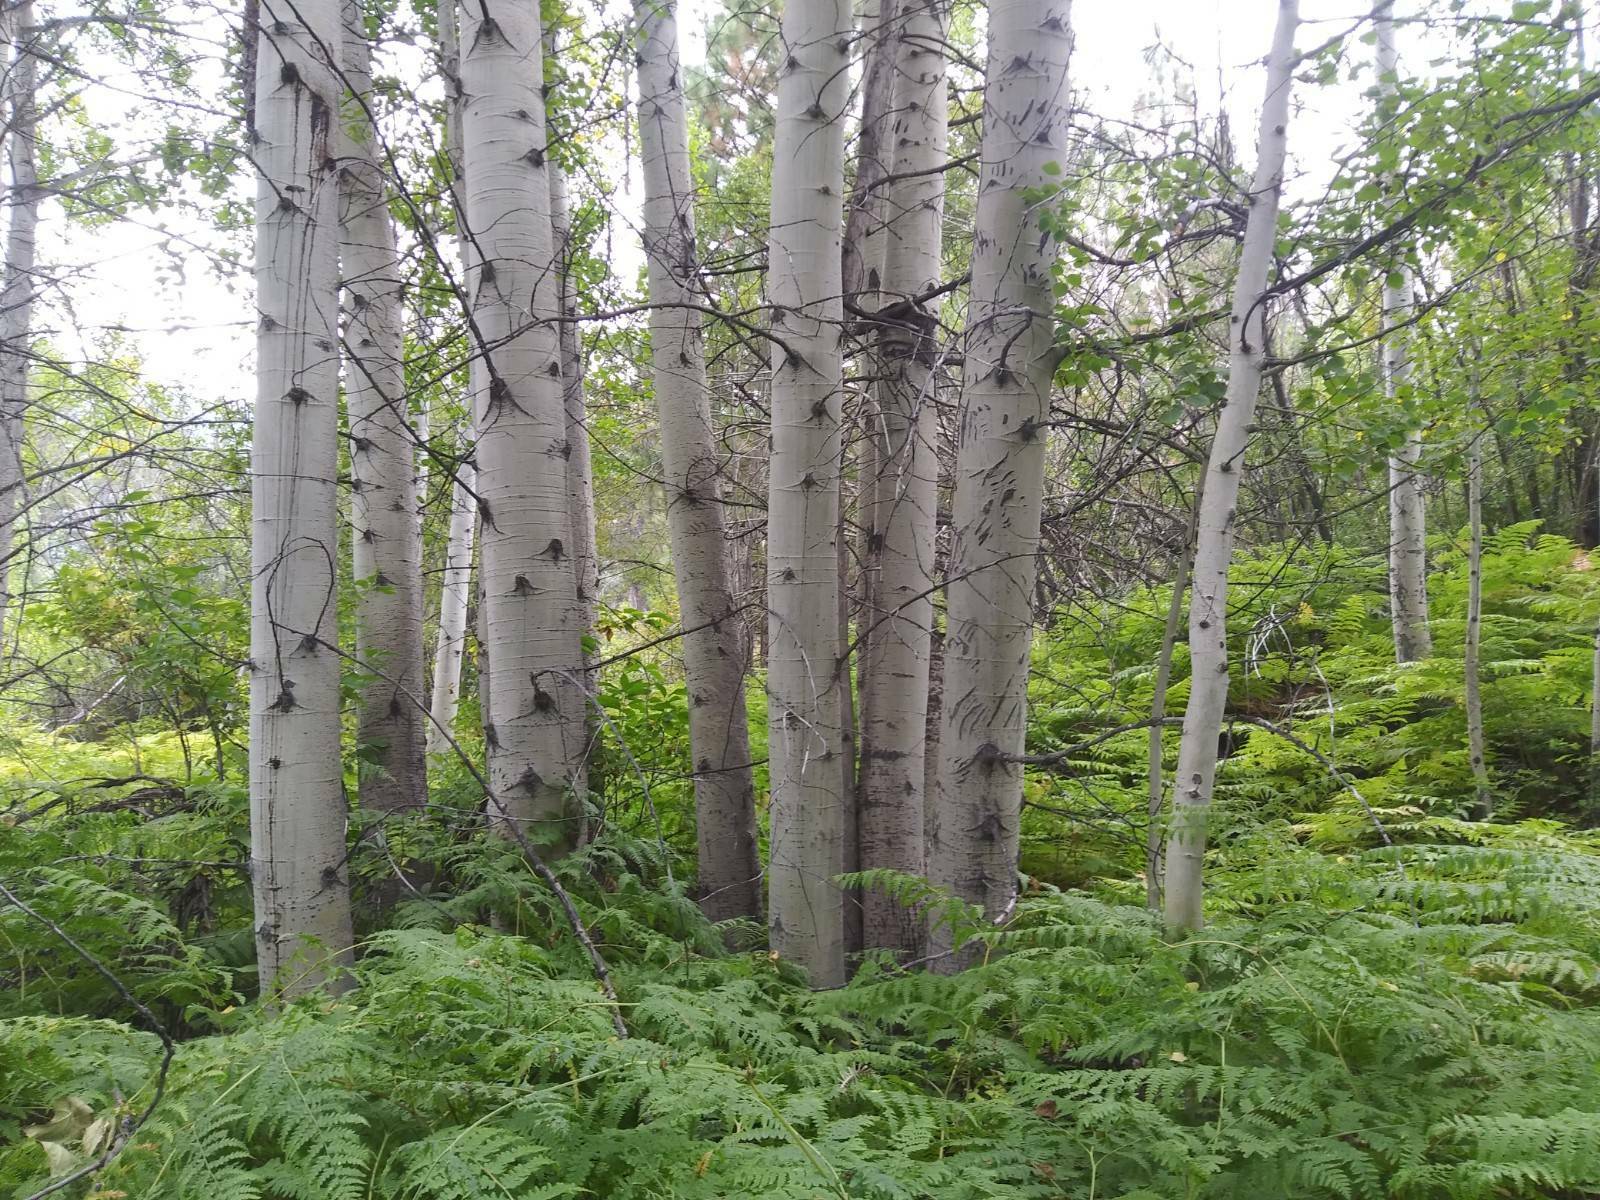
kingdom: Plantae
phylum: Tracheophyta
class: Magnoliopsida
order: Malpighiales
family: Salicaceae
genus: Populus
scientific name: Populus tremuloides
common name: Quaking aspen
